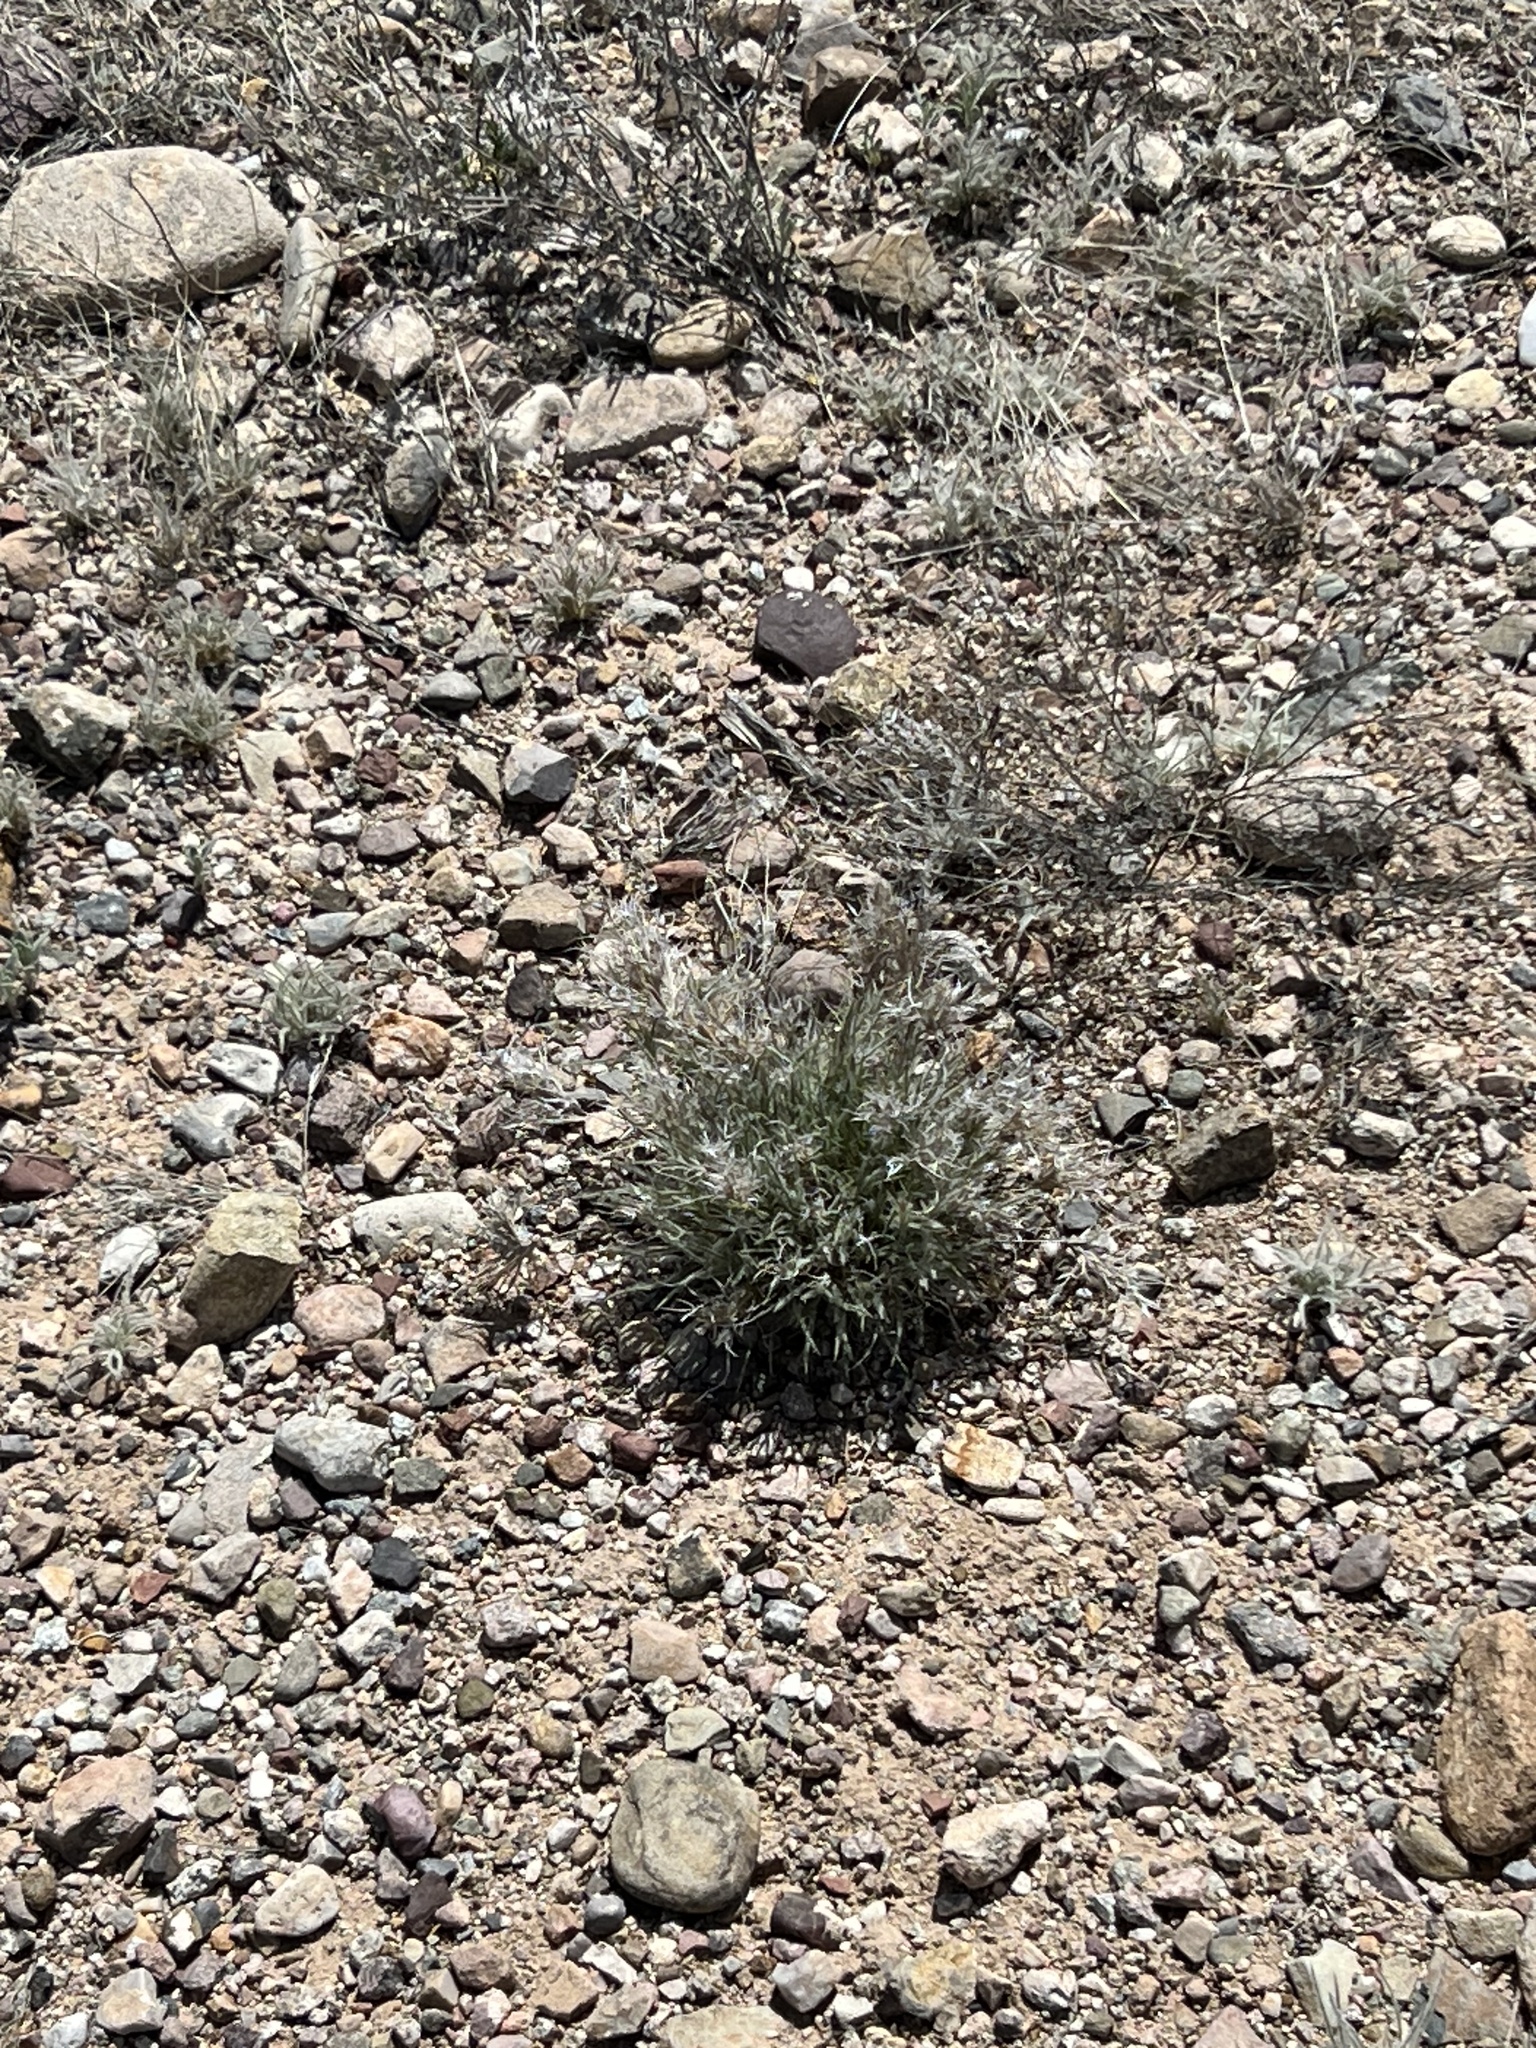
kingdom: Plantae
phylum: Tracheophyta
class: Liliopsida
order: Poales
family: Poaceae
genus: Dasyochloa
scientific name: Dasyochloa pulchella
